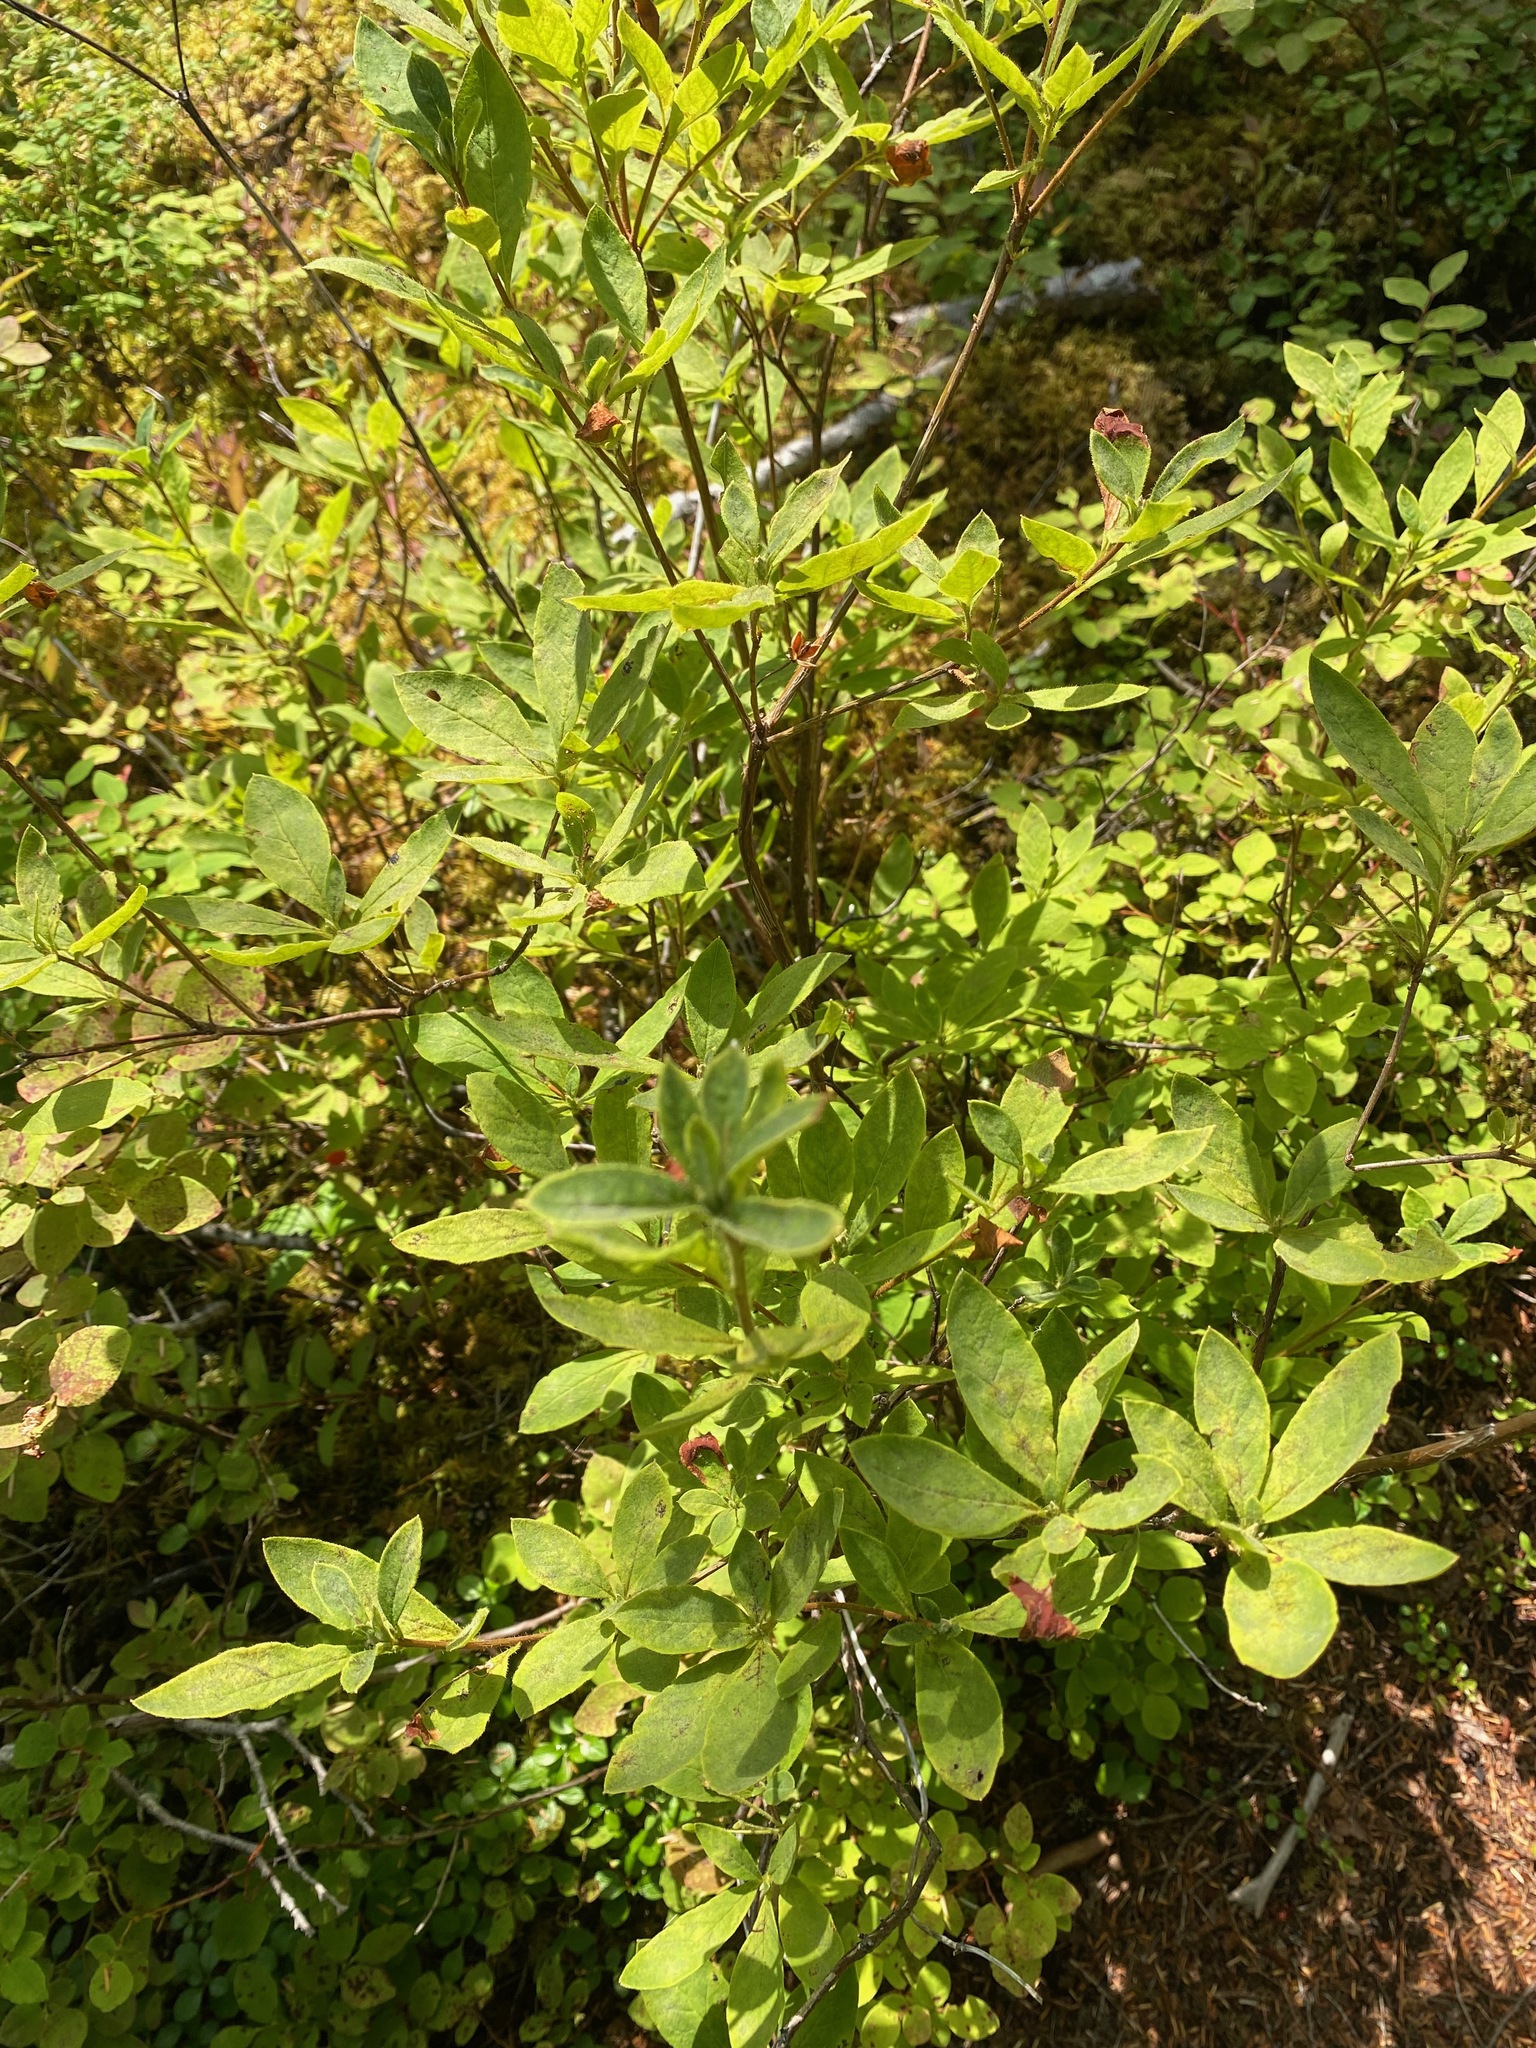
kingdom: Plantae
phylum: Tracheophyta
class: Magnoliopsida
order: Ericales
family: Ericaceae
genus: Rhododendron
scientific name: Rhododendron menziesii
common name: Pacific menziesia
